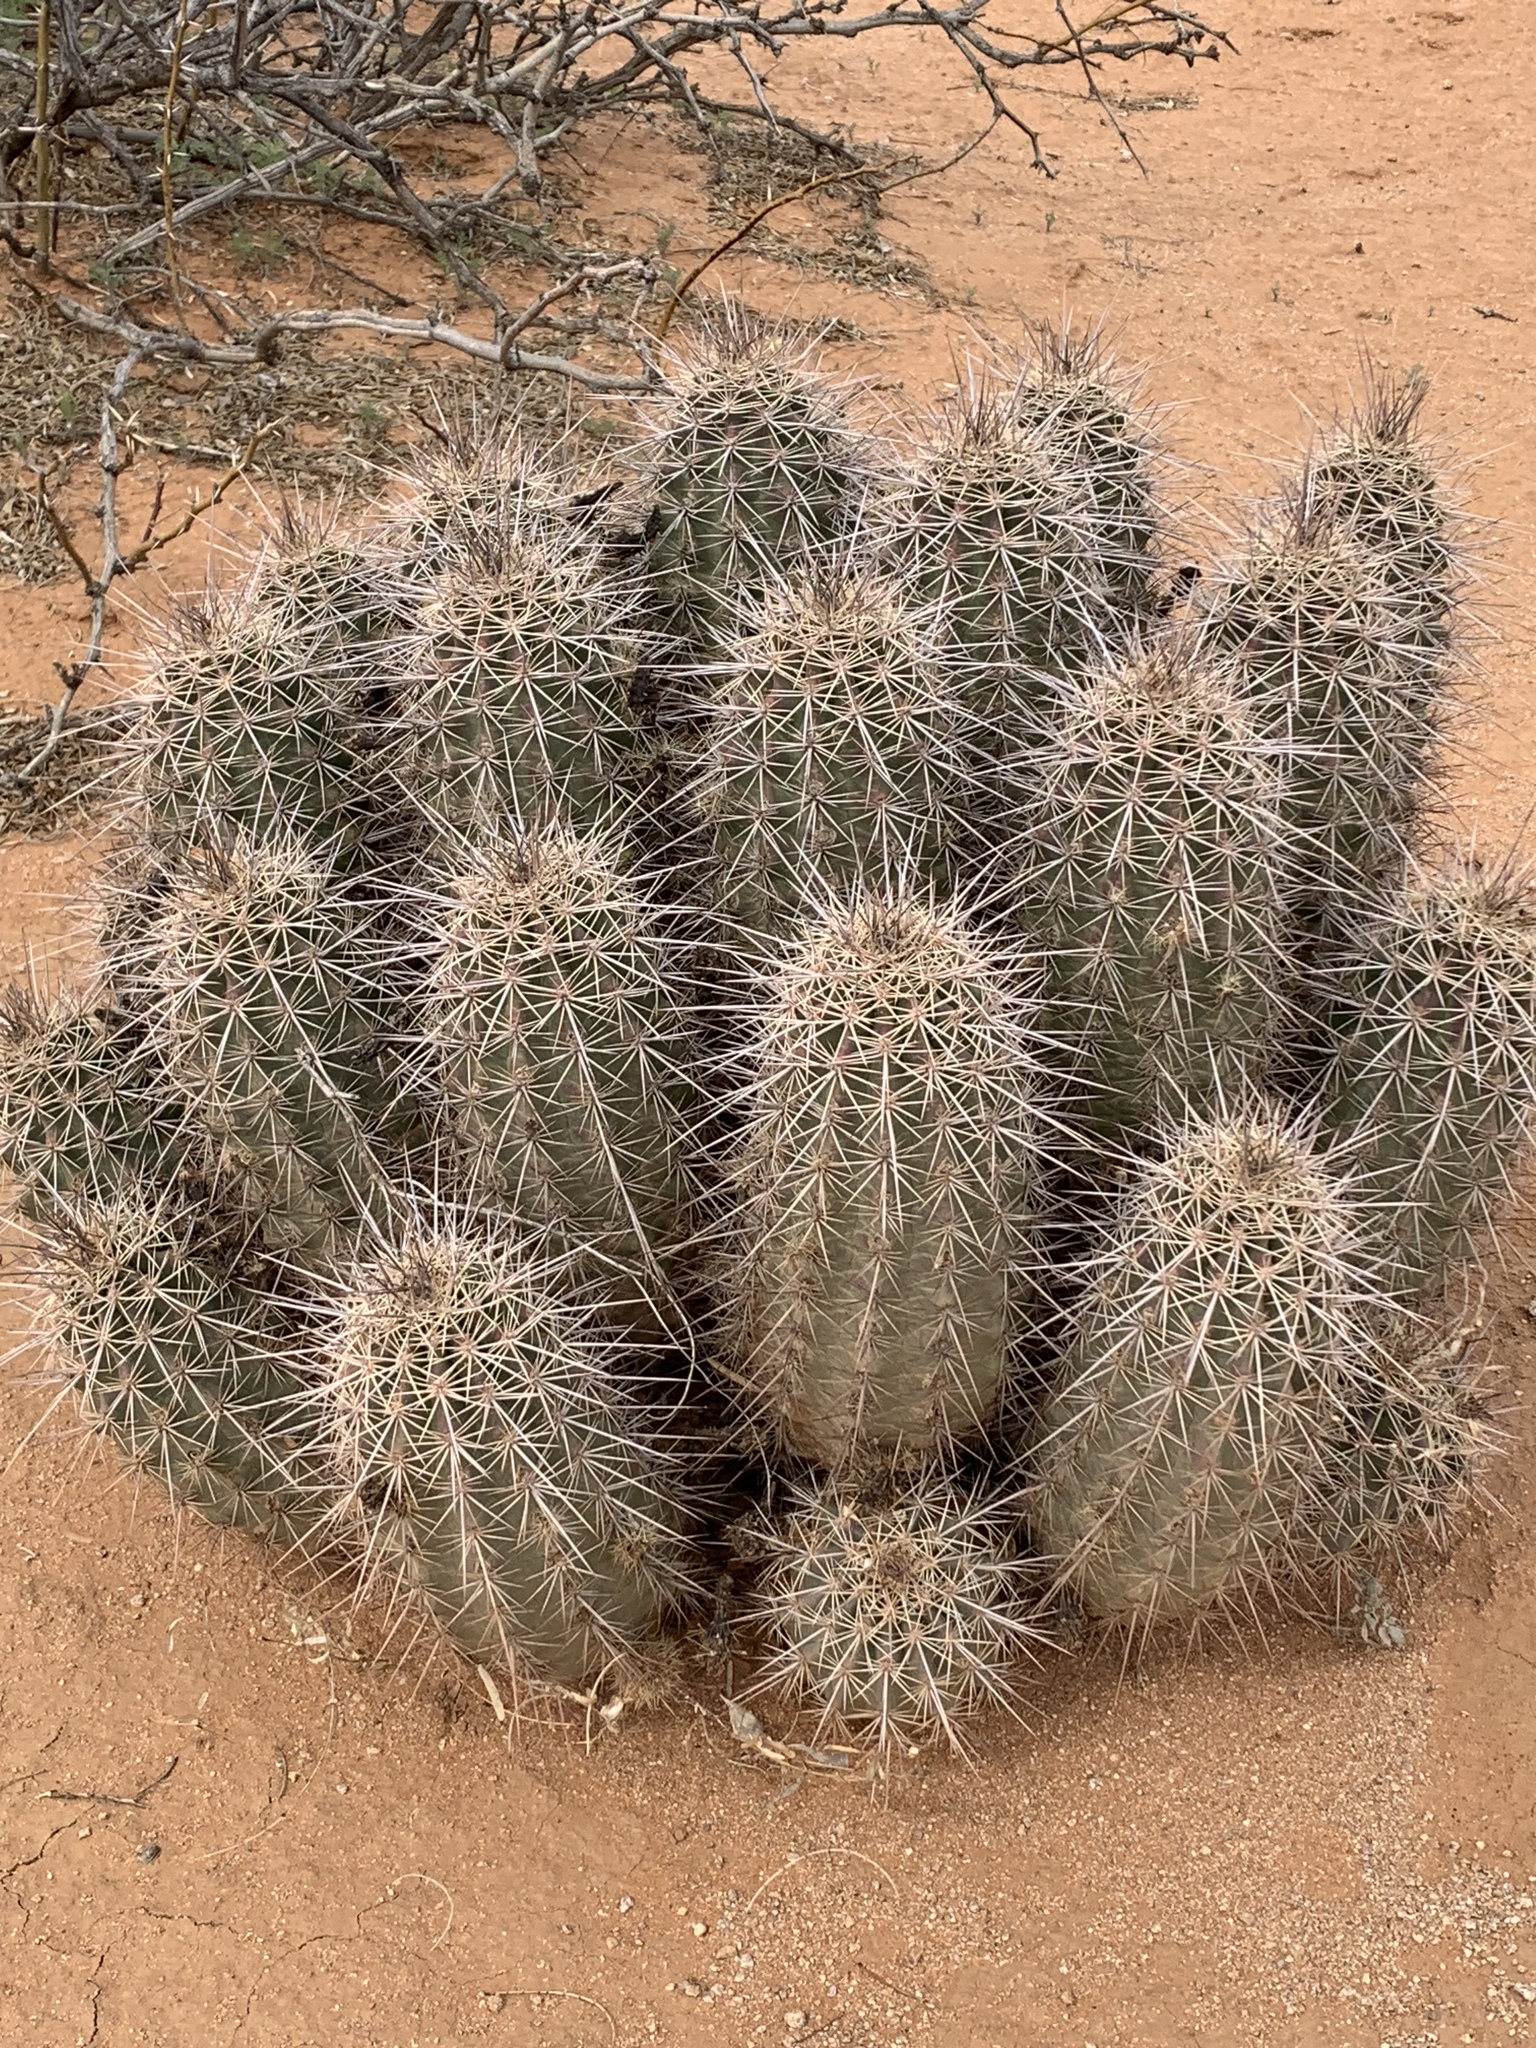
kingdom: Plantae
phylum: Tracheophyta
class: Magnoliopsida
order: Caryophyllales
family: Cactaceae
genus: Echinocereus
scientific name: Echinocereus coccineus
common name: Scarlet hedgehog cactus
